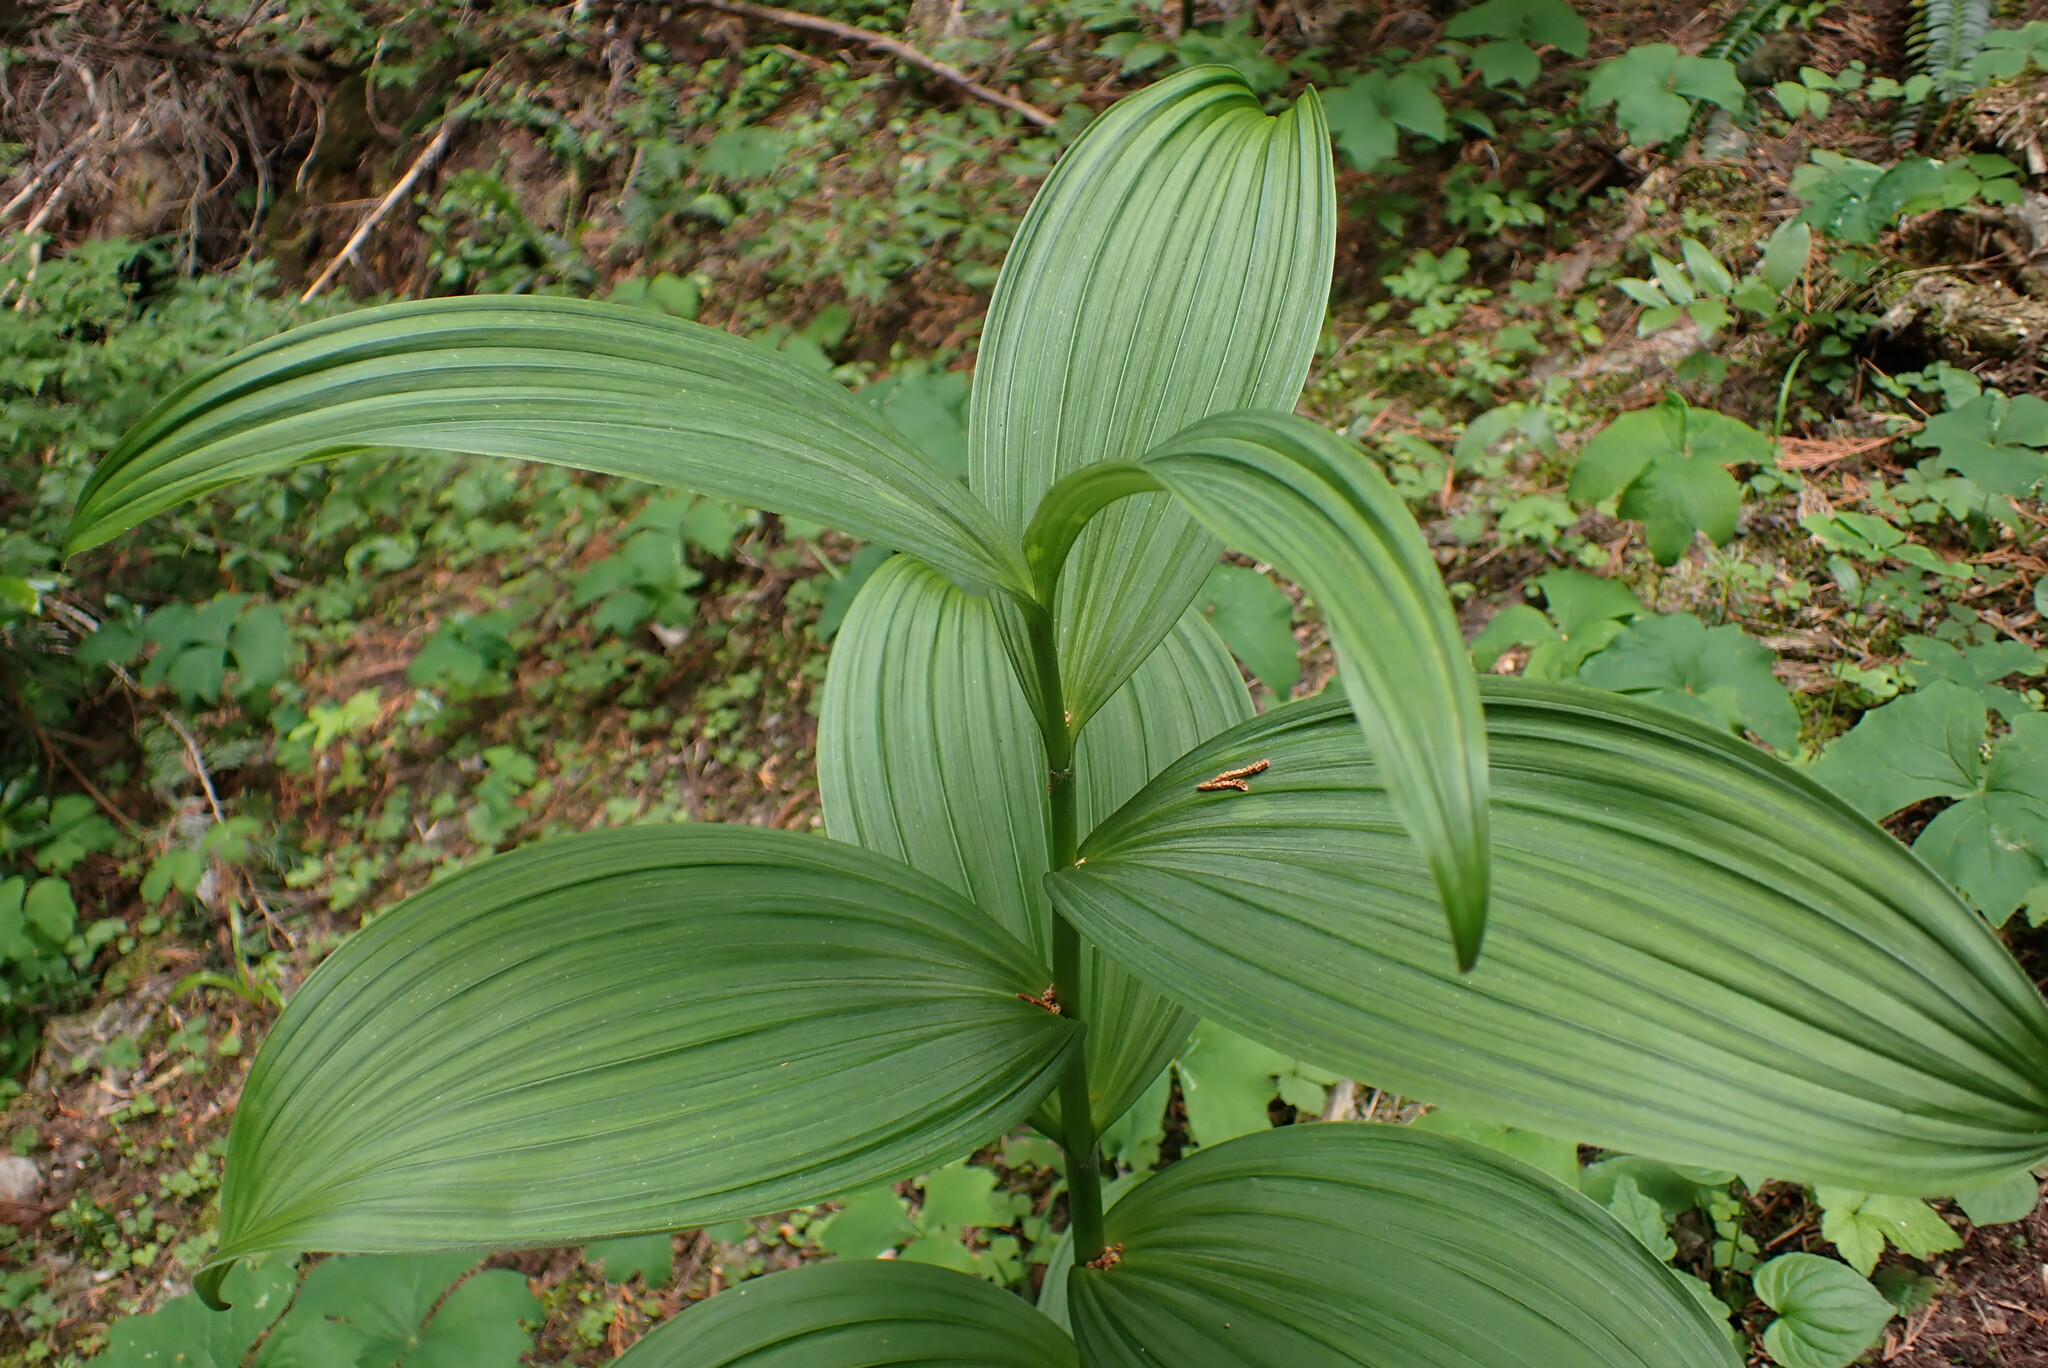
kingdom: Plantae
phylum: Tracheophyta
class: Liliopsida
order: Liliales
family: Melanthiaceae
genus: Veratrum
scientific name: Veratrum viride
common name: American false hellebore
